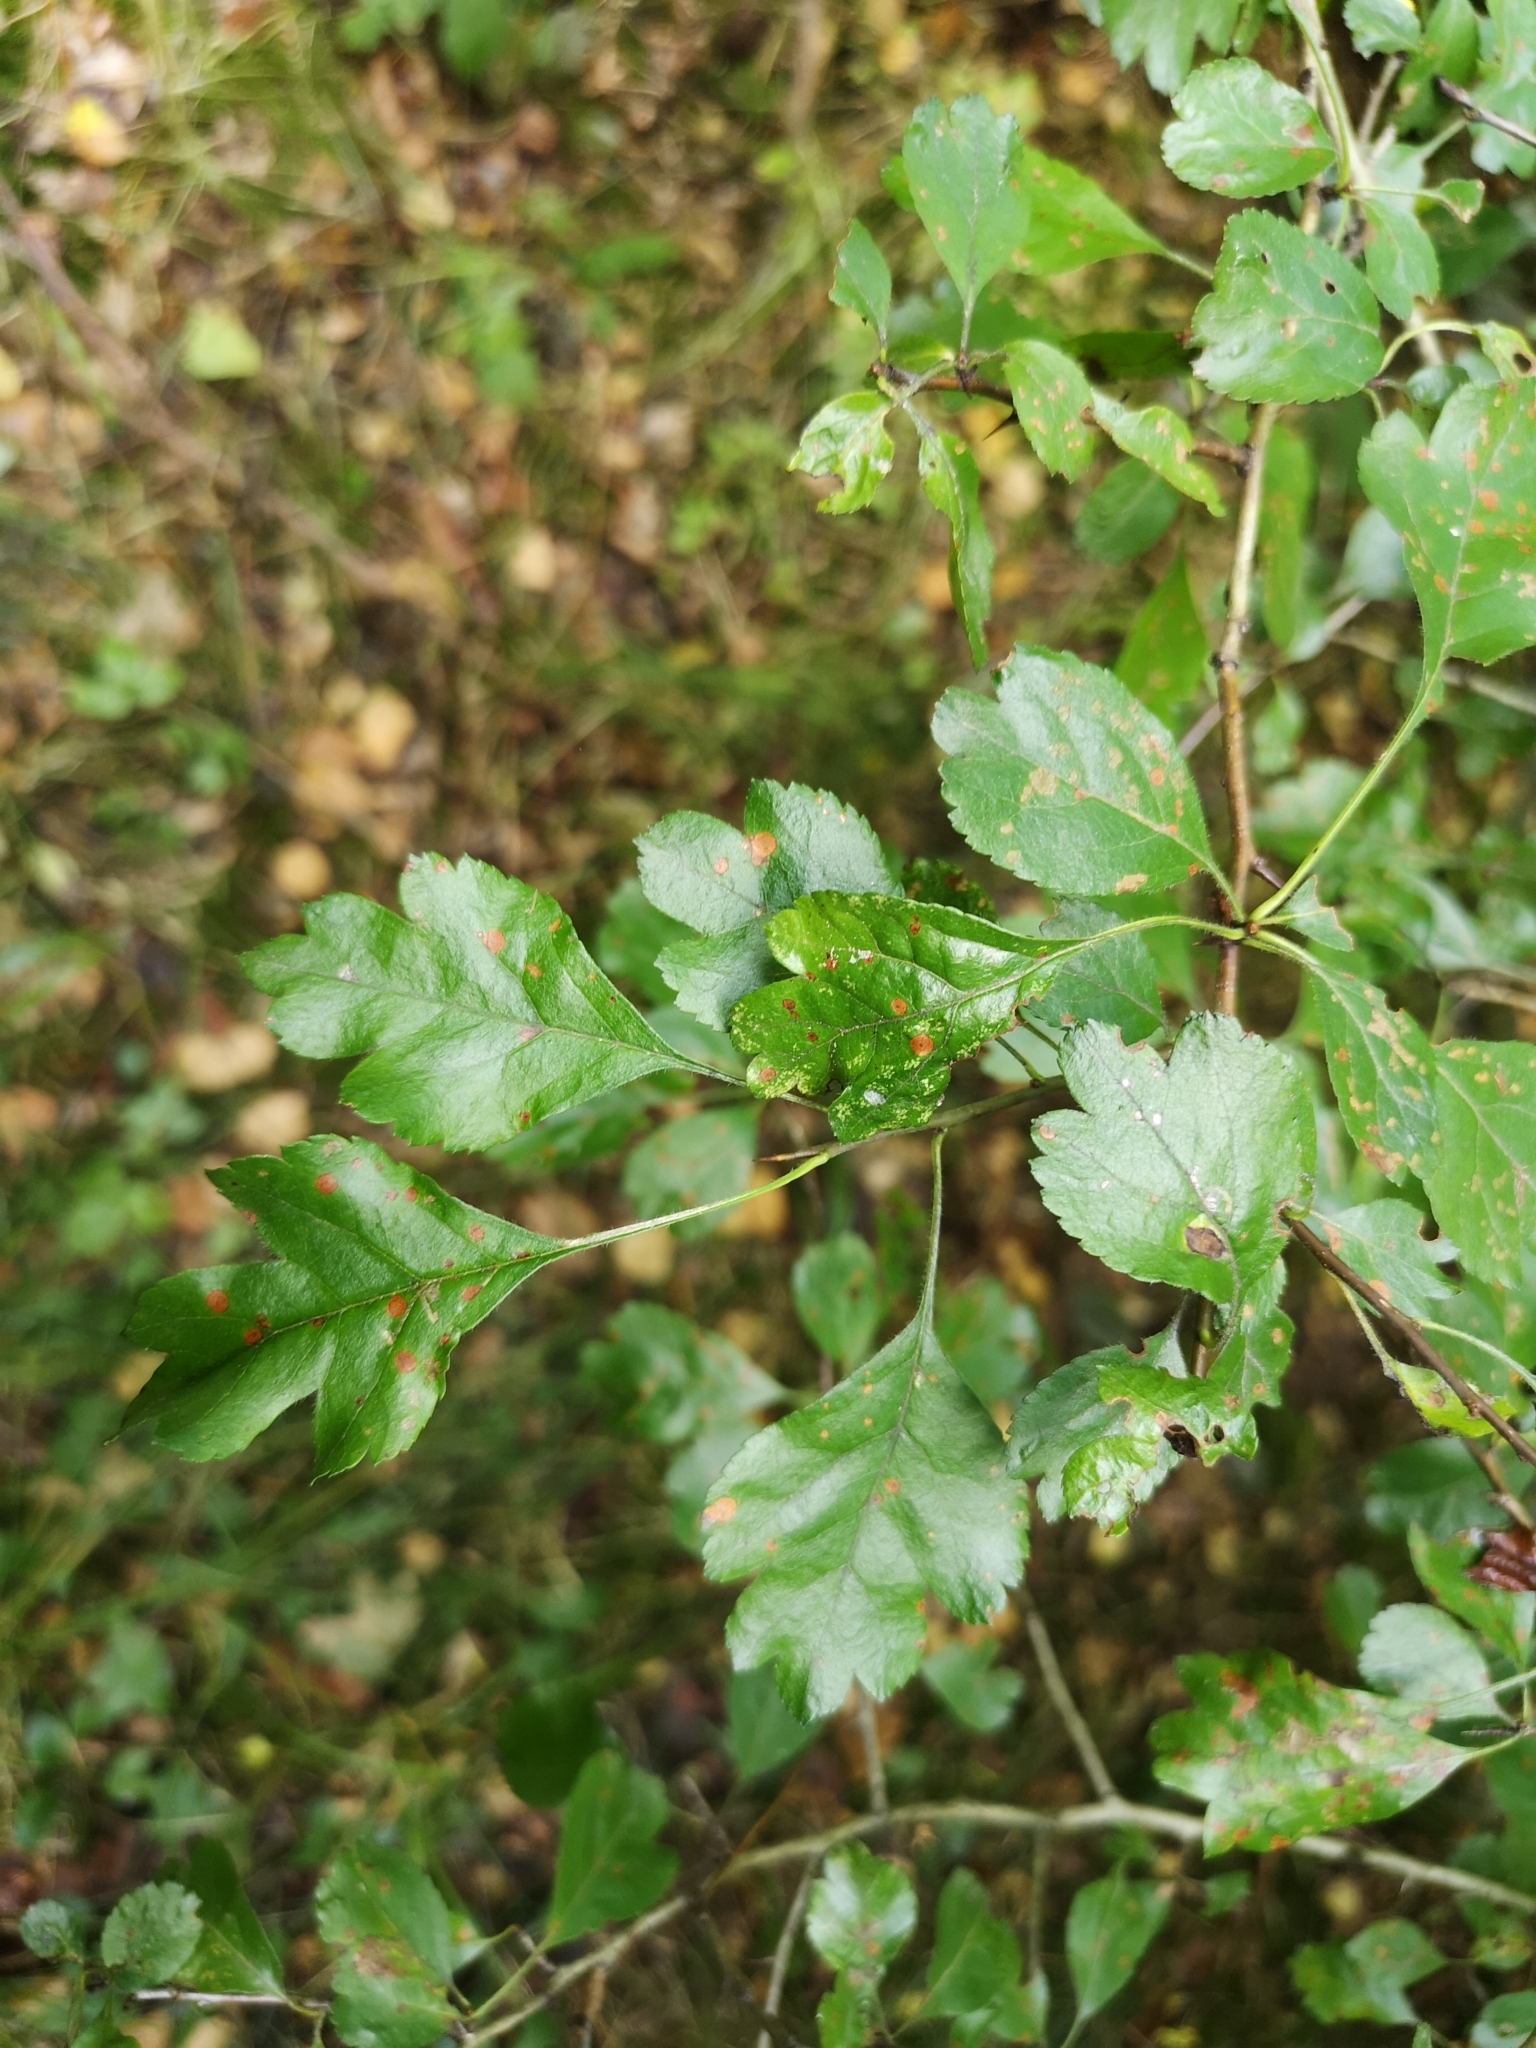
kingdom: Plantae
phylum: Tracheophyta
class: Magnoliopsida
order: Rosales
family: Rosaceae
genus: Crataegus
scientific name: Crataegus laevigata
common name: Midland hawthorn
